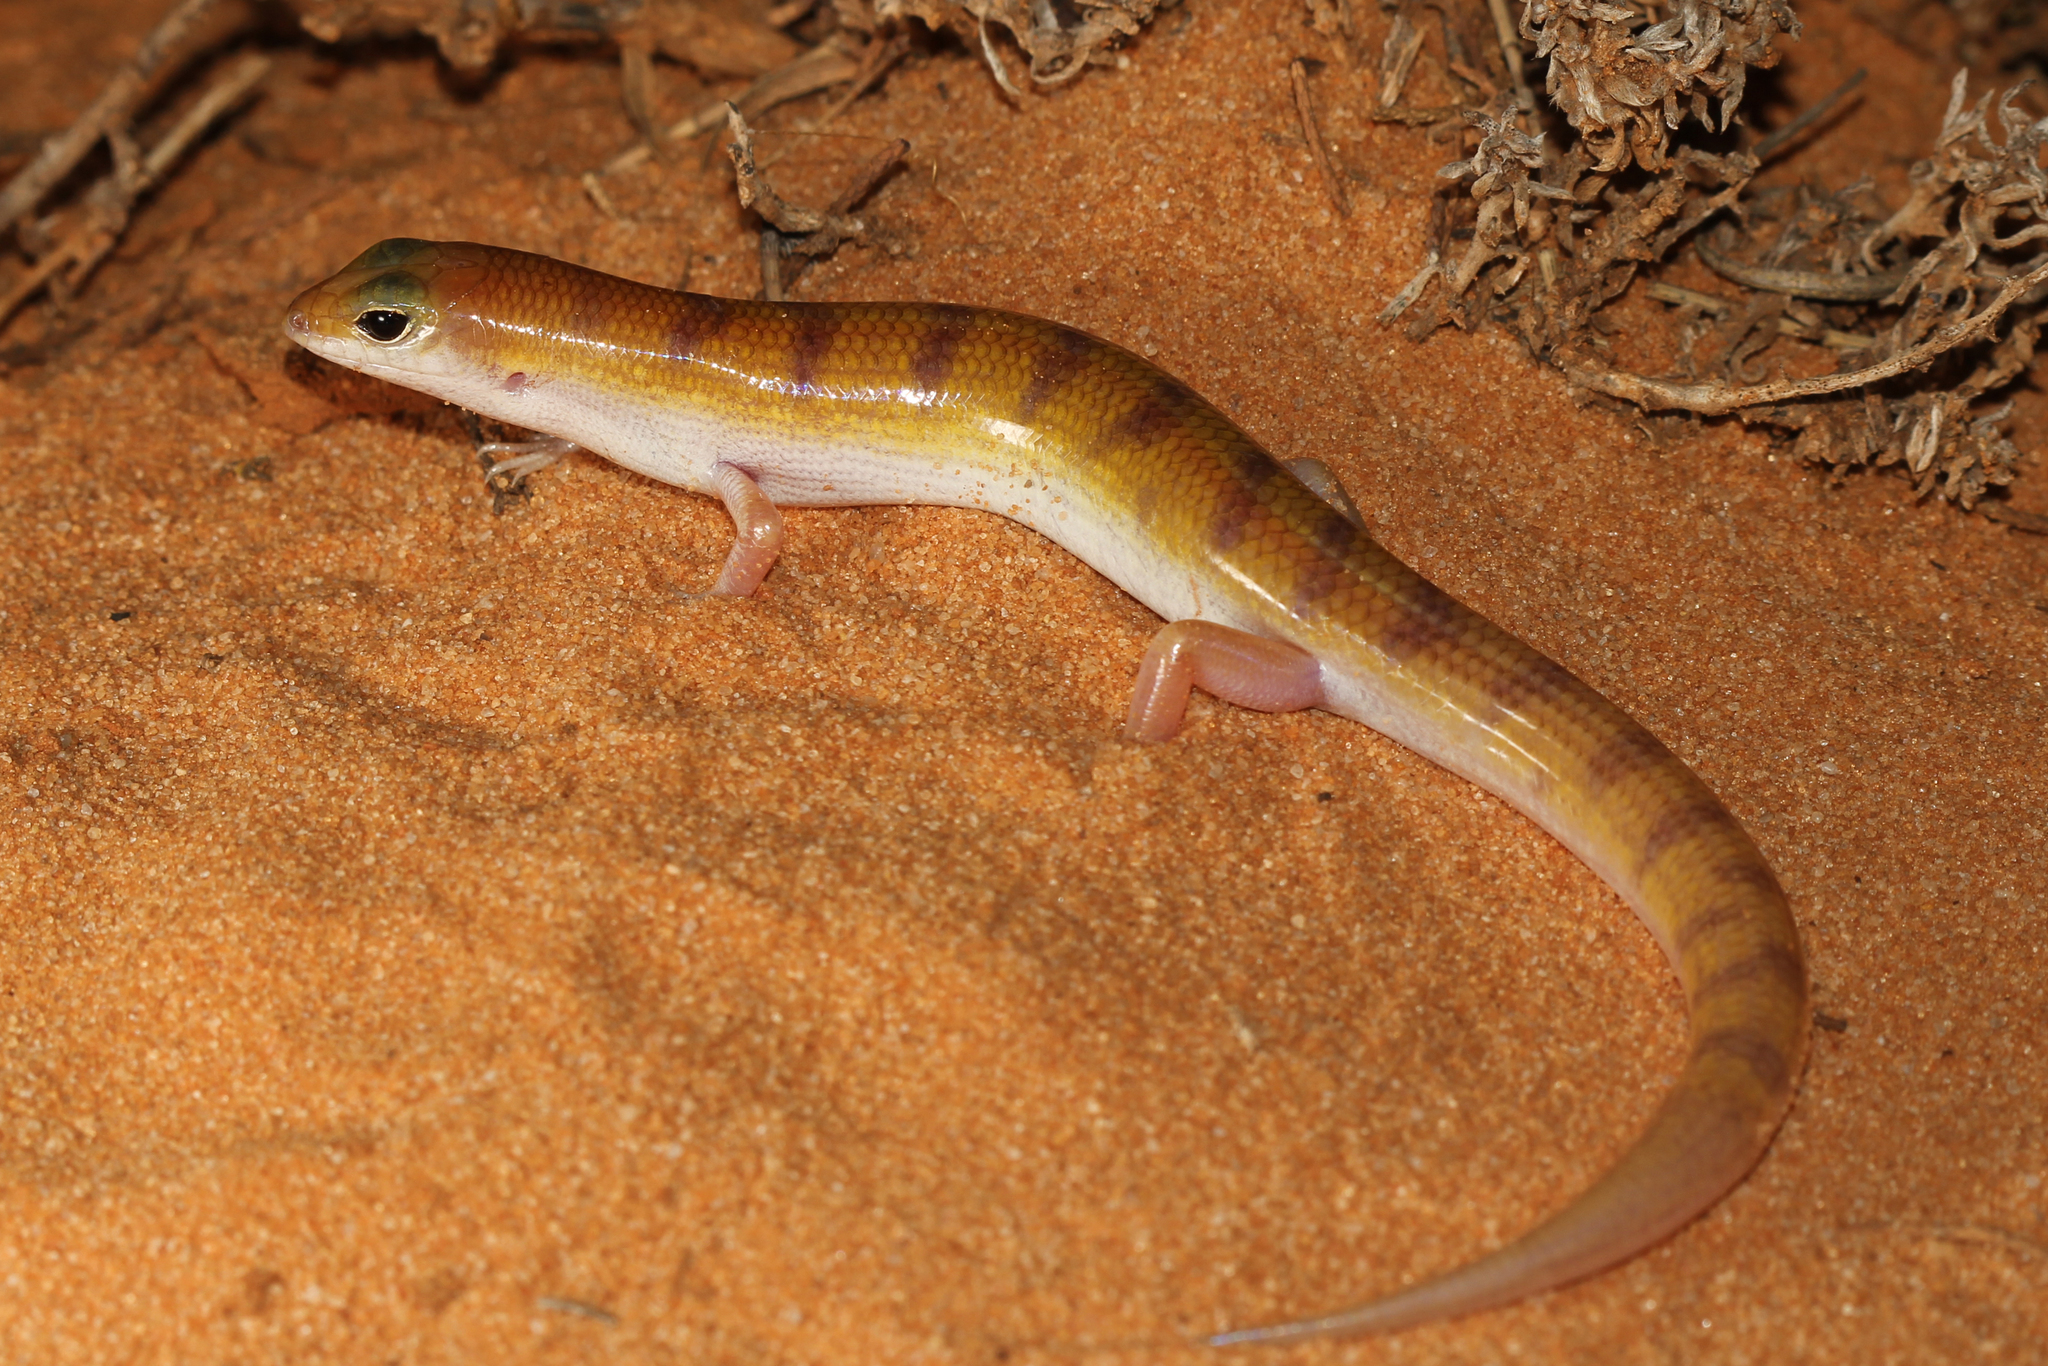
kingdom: Animalia
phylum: Chordata
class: Squamata
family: Scincidae
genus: Eremiascincus
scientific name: Eremiascincus richardsonii
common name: Broad banded sand swimmer
